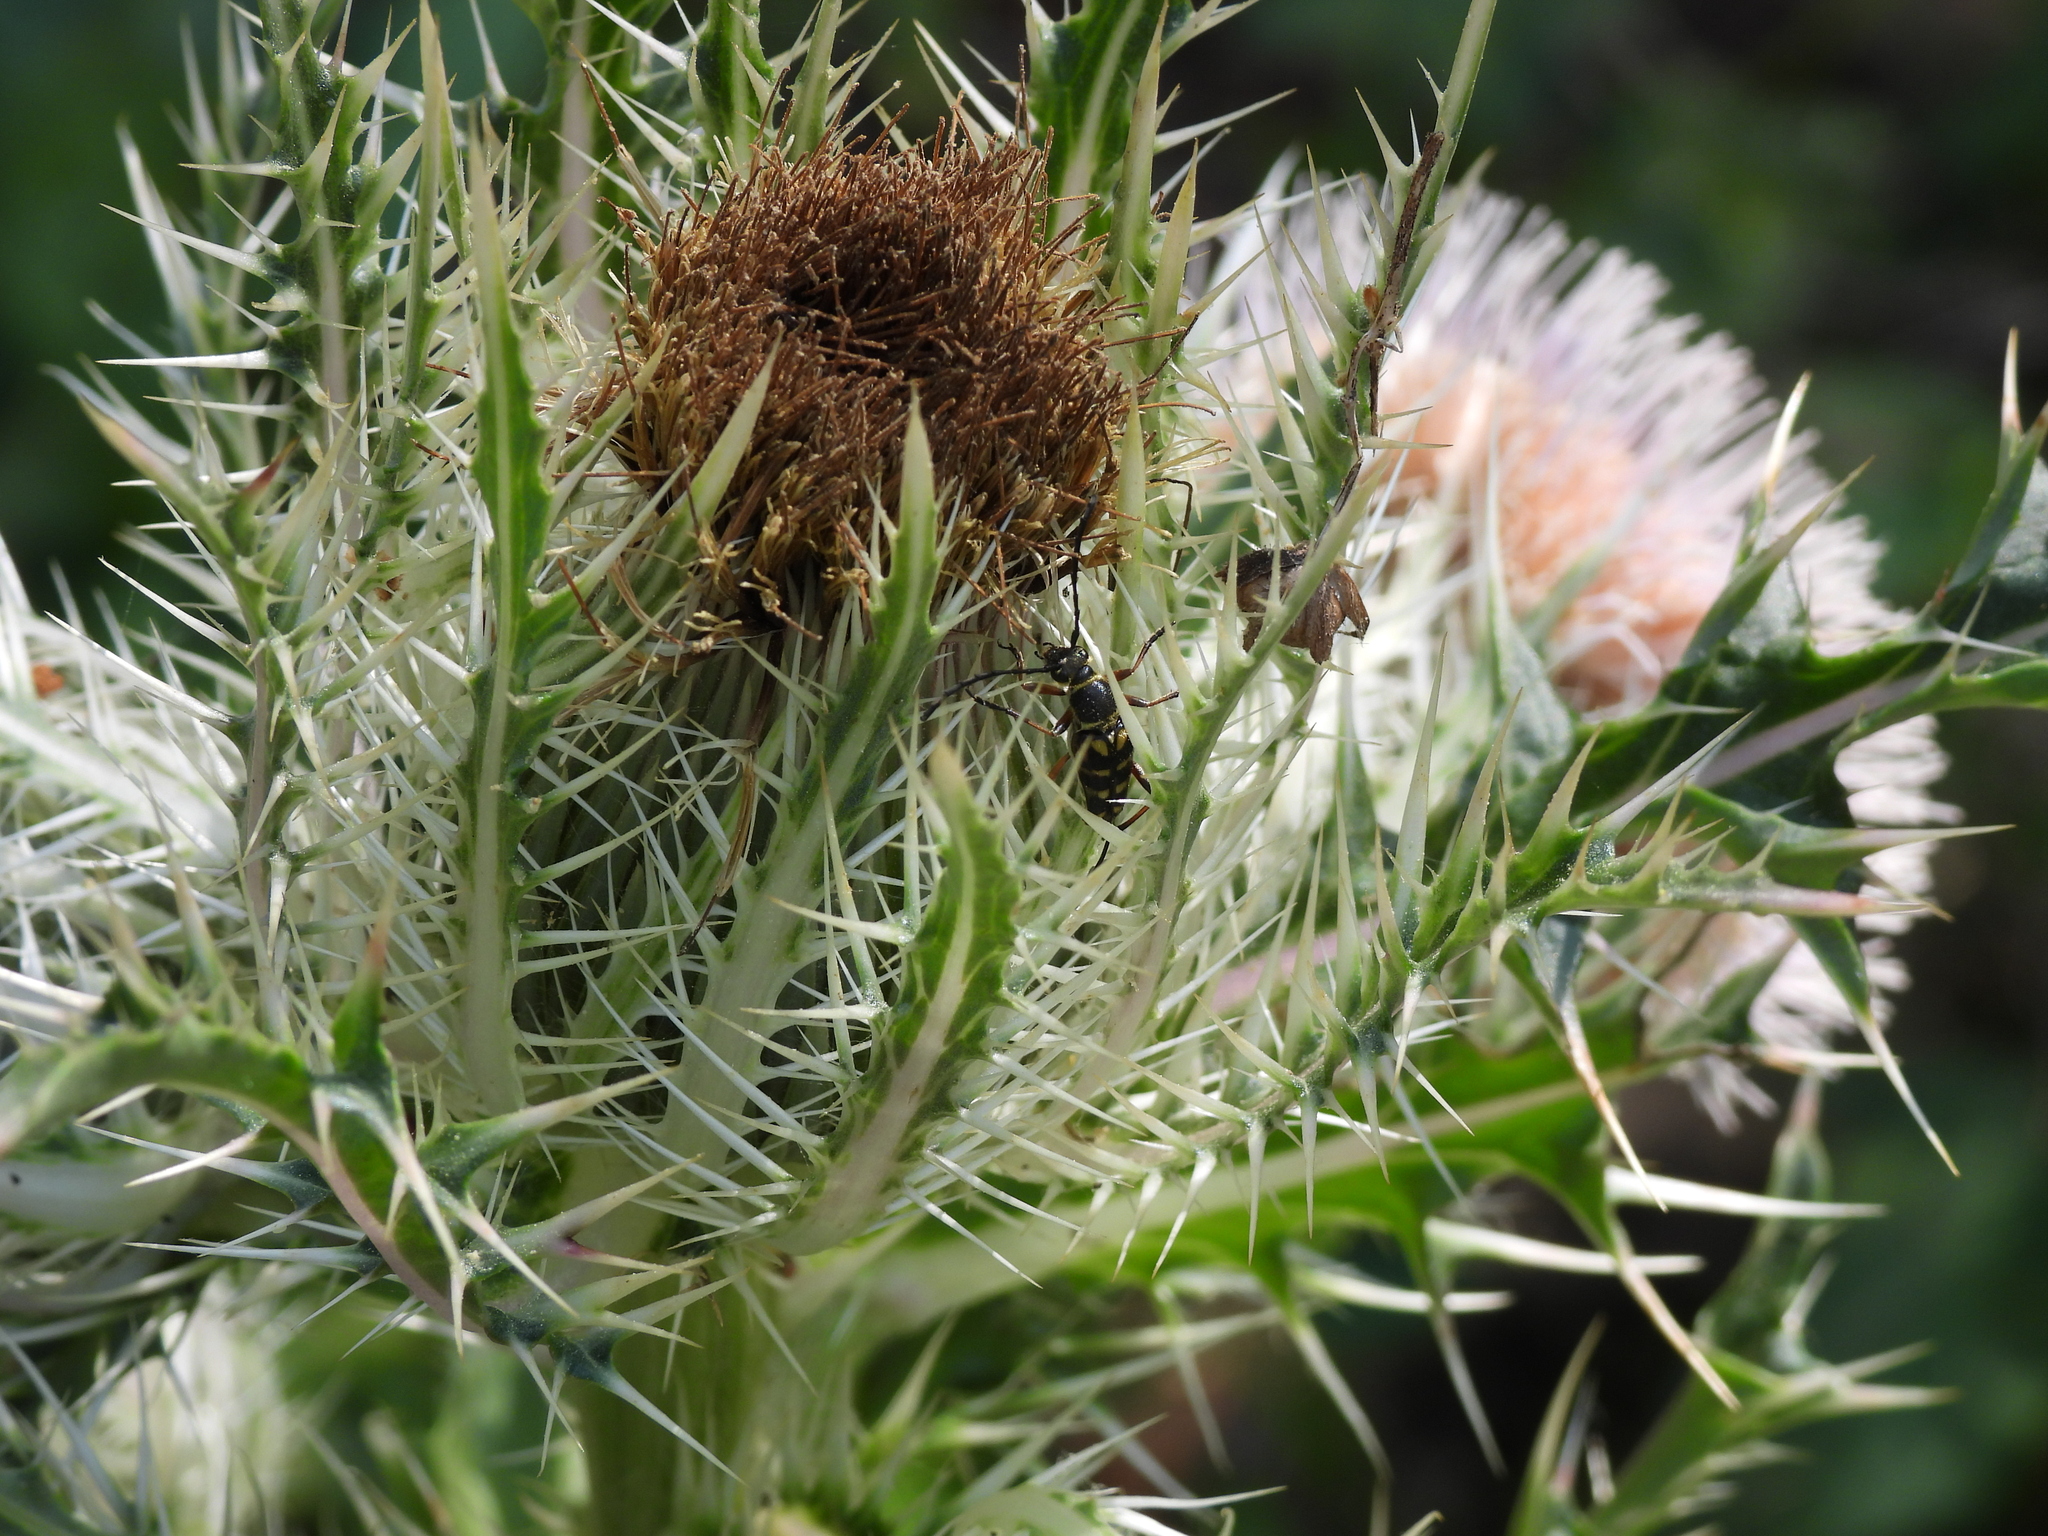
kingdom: Animalia
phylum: Arthropoda
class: Insecta
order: Coleoptera
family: Cerambycidae
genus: Typocerus
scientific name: Typocerus zebra
